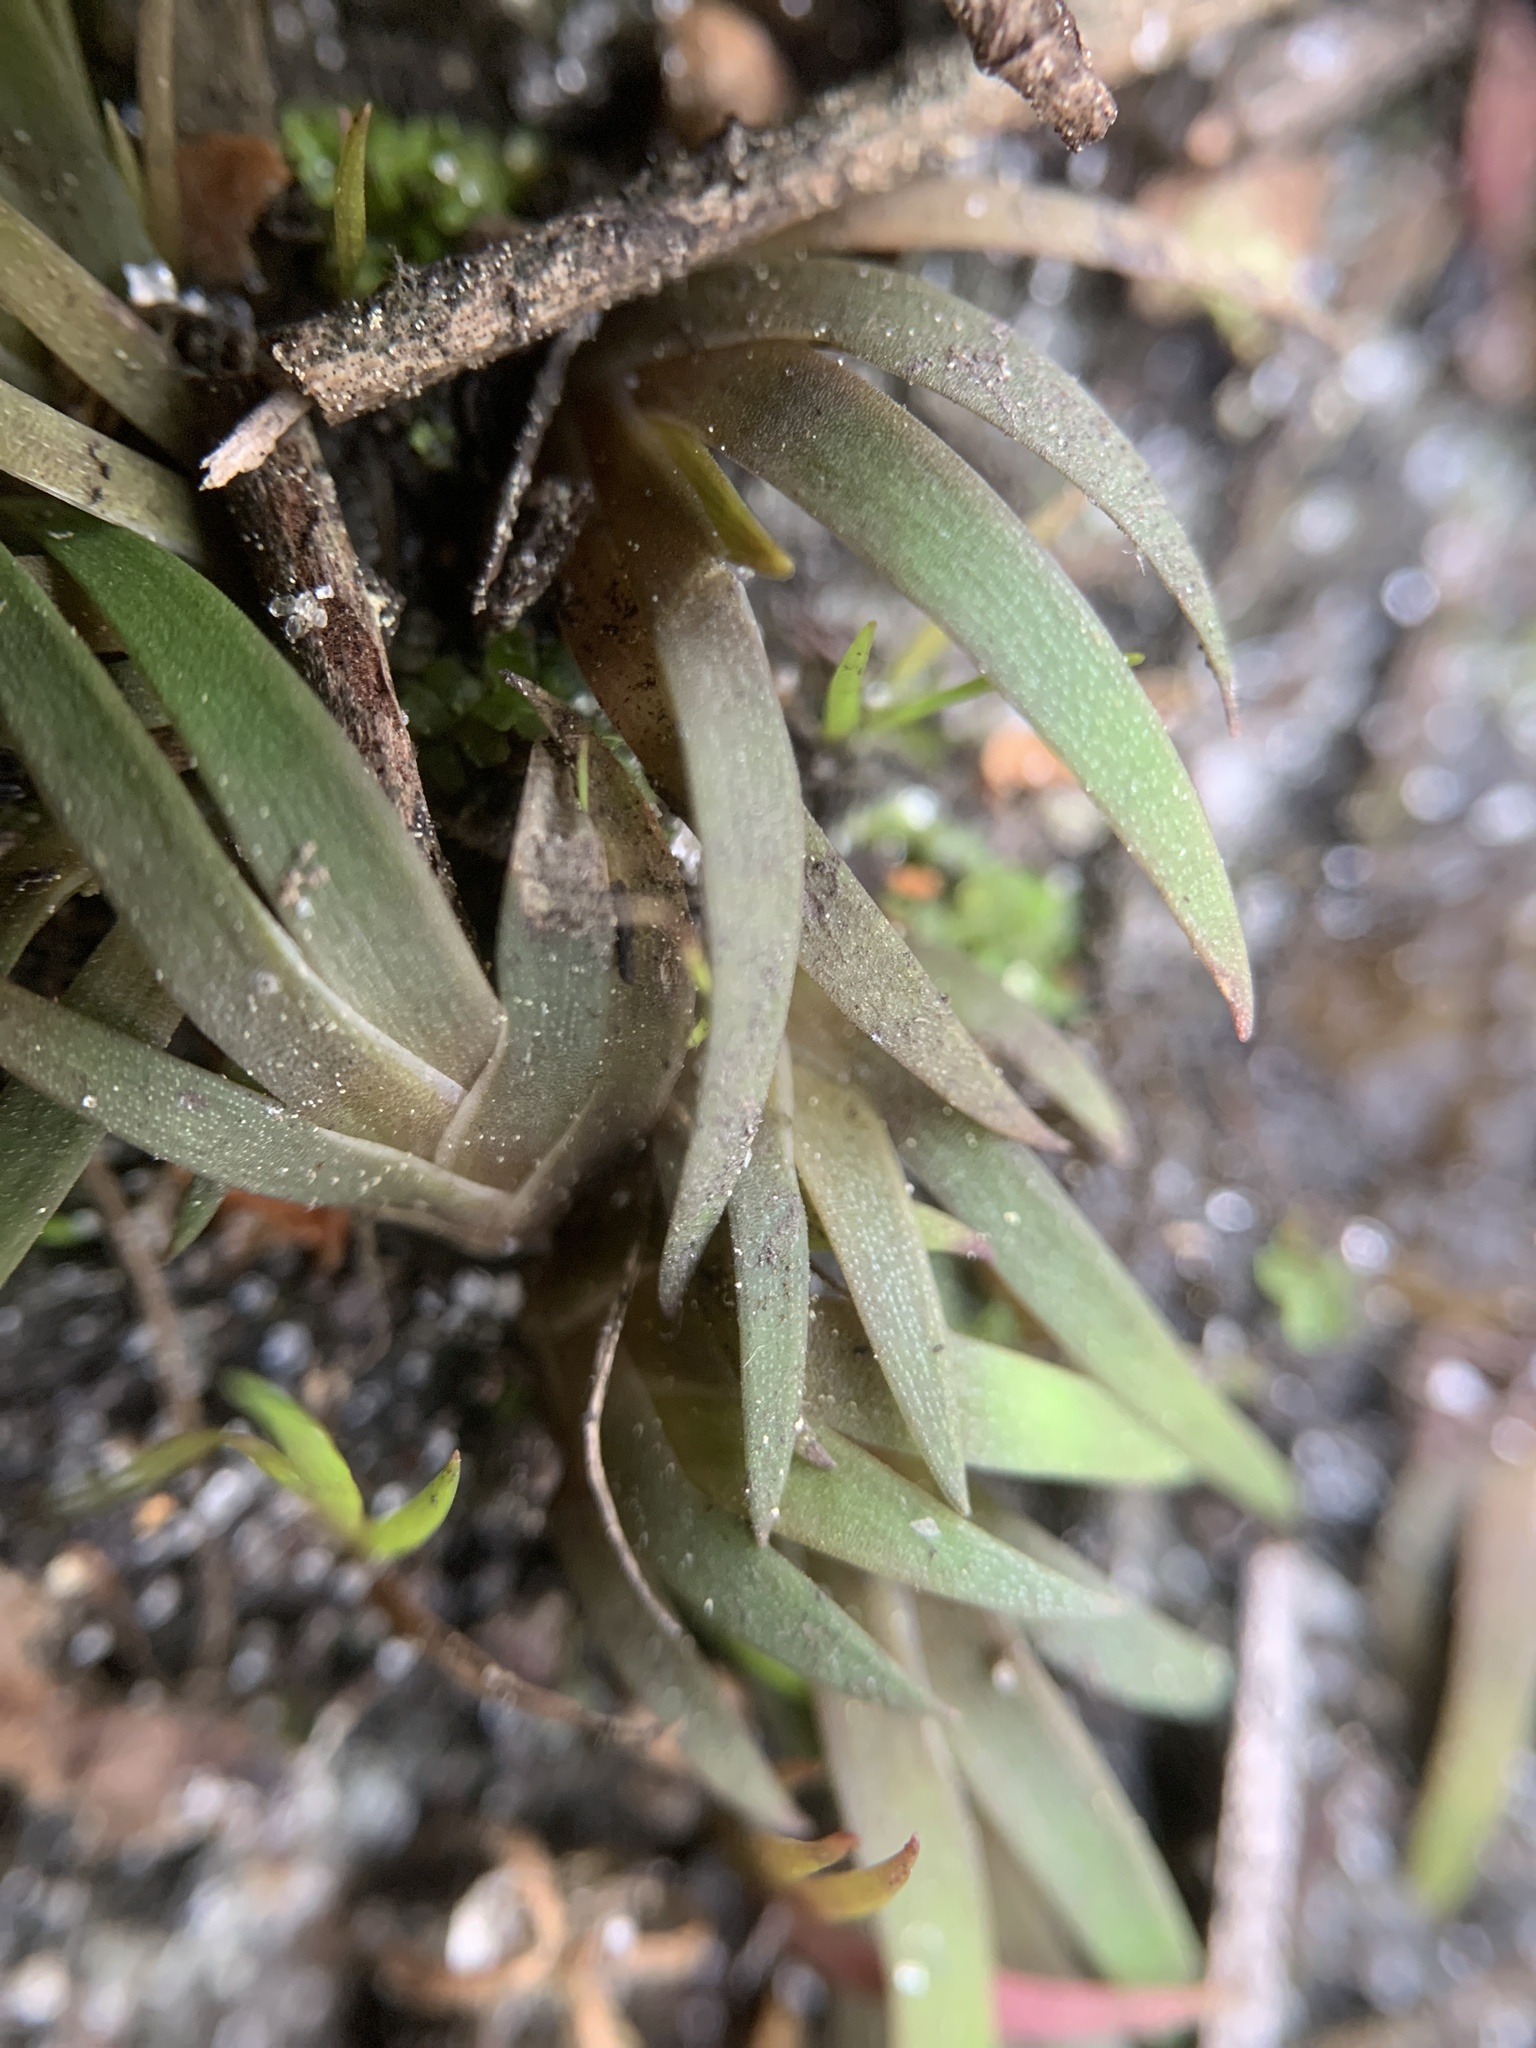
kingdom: Plantae
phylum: Tracheophyta
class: Liliopsida
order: Poales
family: Xyridaceae
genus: Xyris
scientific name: Xyris flabelliformis
